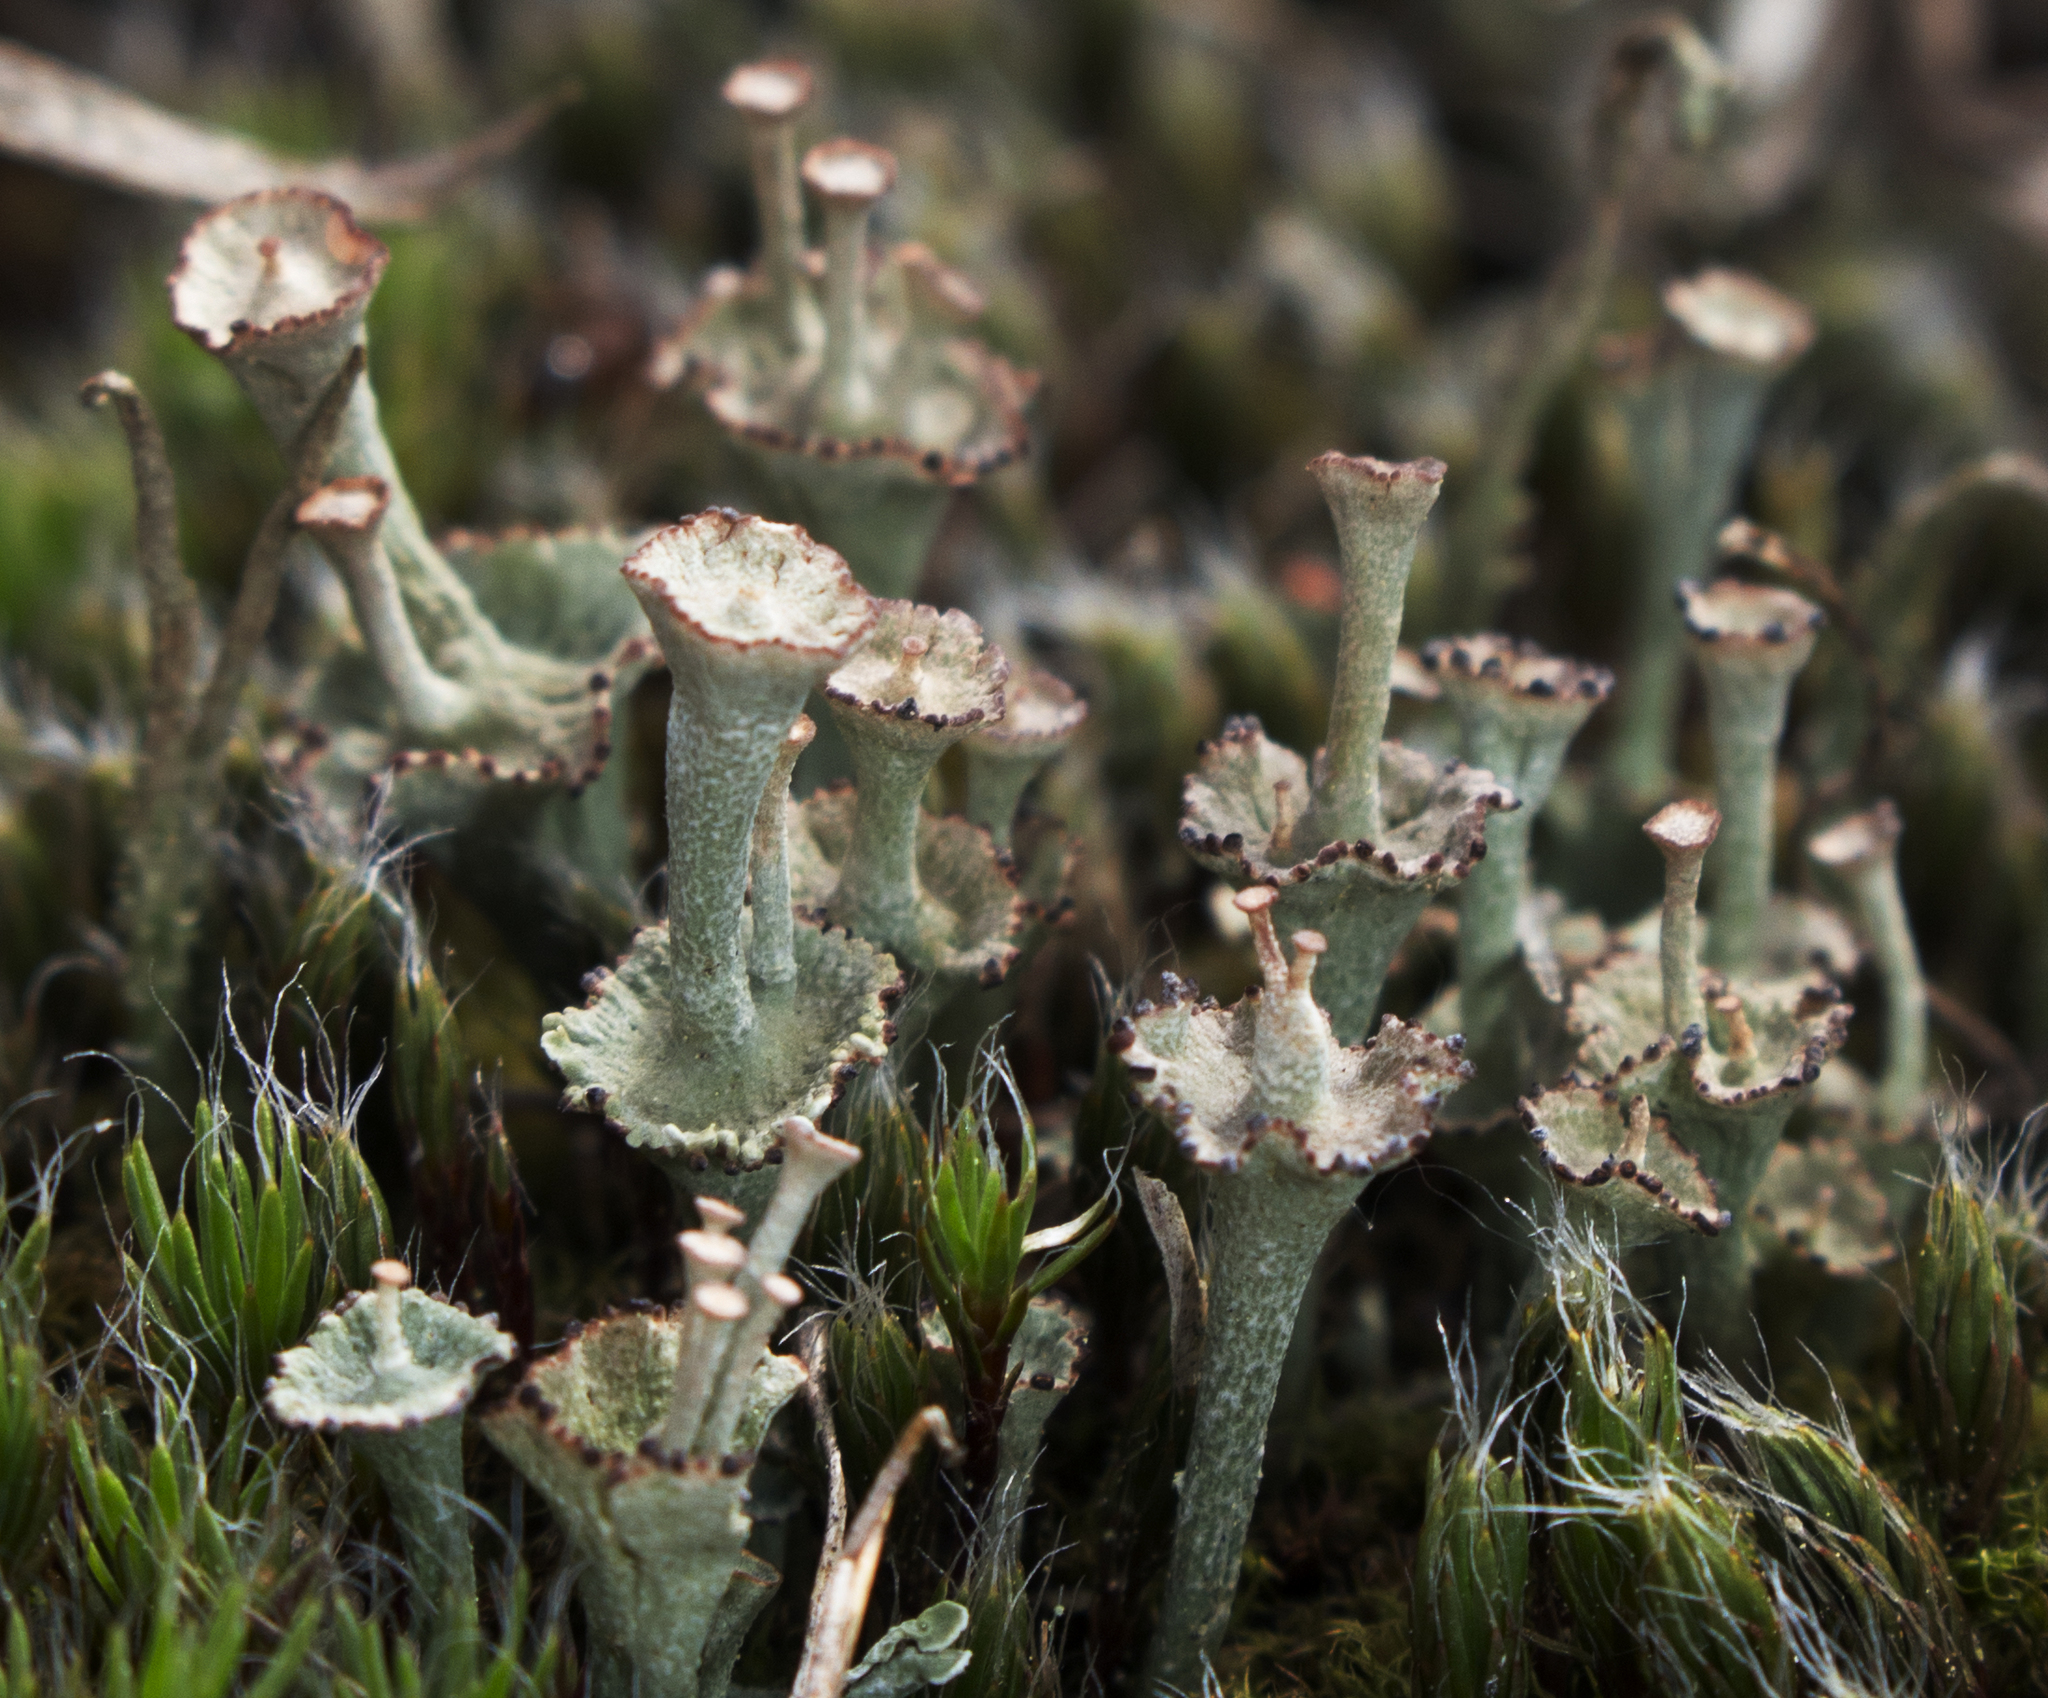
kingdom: Fungi
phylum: Ascomycota
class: Lecanoromycetes
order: Lecanorales
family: Cladoniaceae
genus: Cladonia
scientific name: Cladonia cervicornis
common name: Browned pixie-cup lichen
